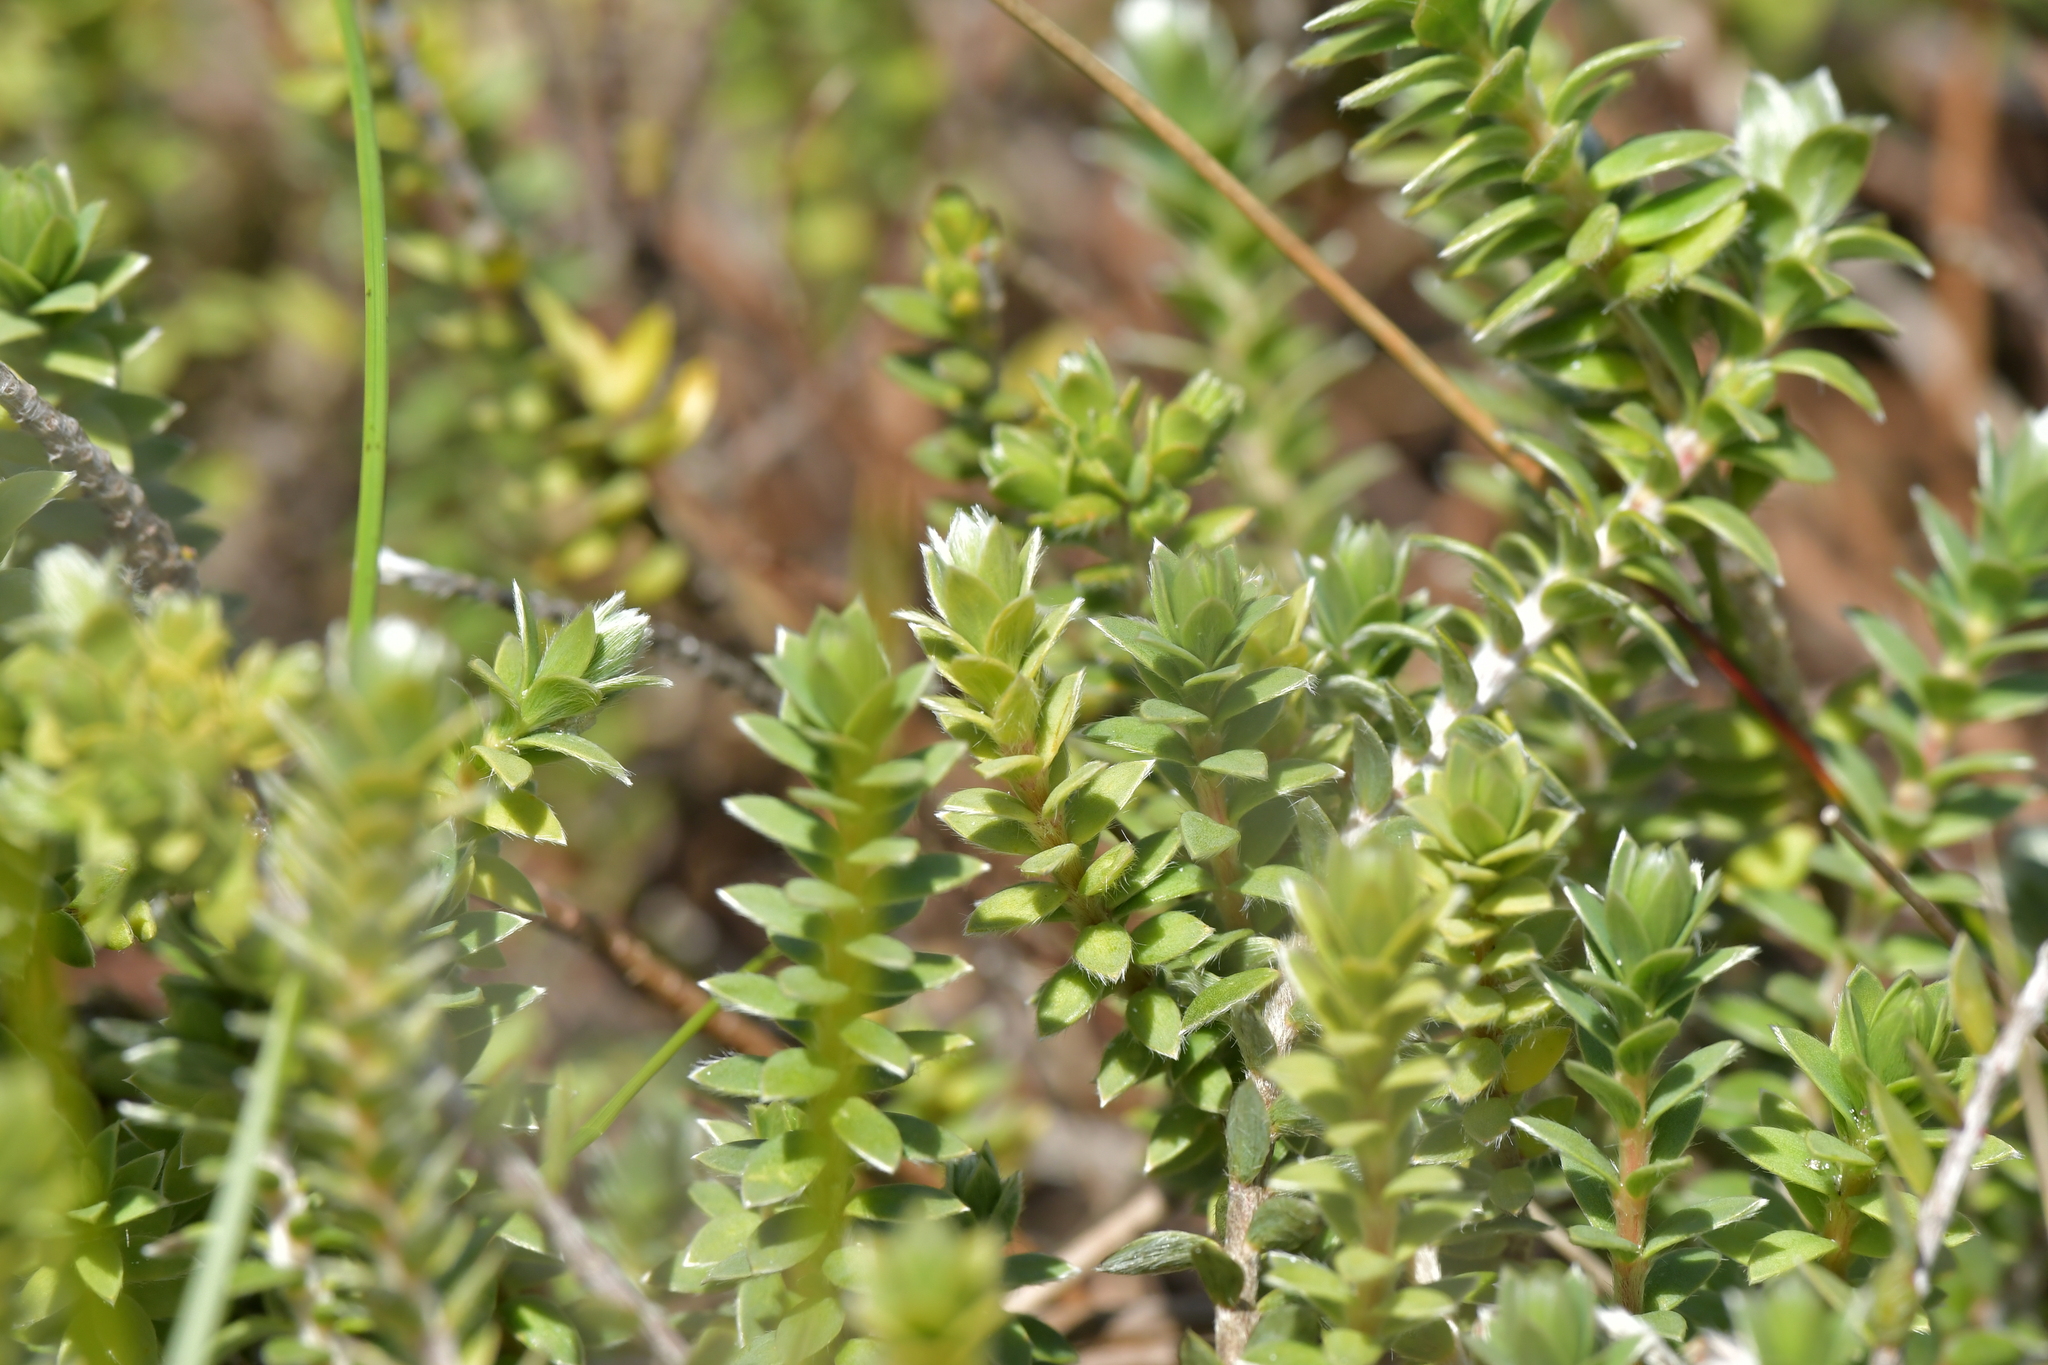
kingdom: Plantae
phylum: Tracheophyta
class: Magnoliopsida
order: Malvales
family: Thymelaeaceae
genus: Pimelea
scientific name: Pimelea villosa
